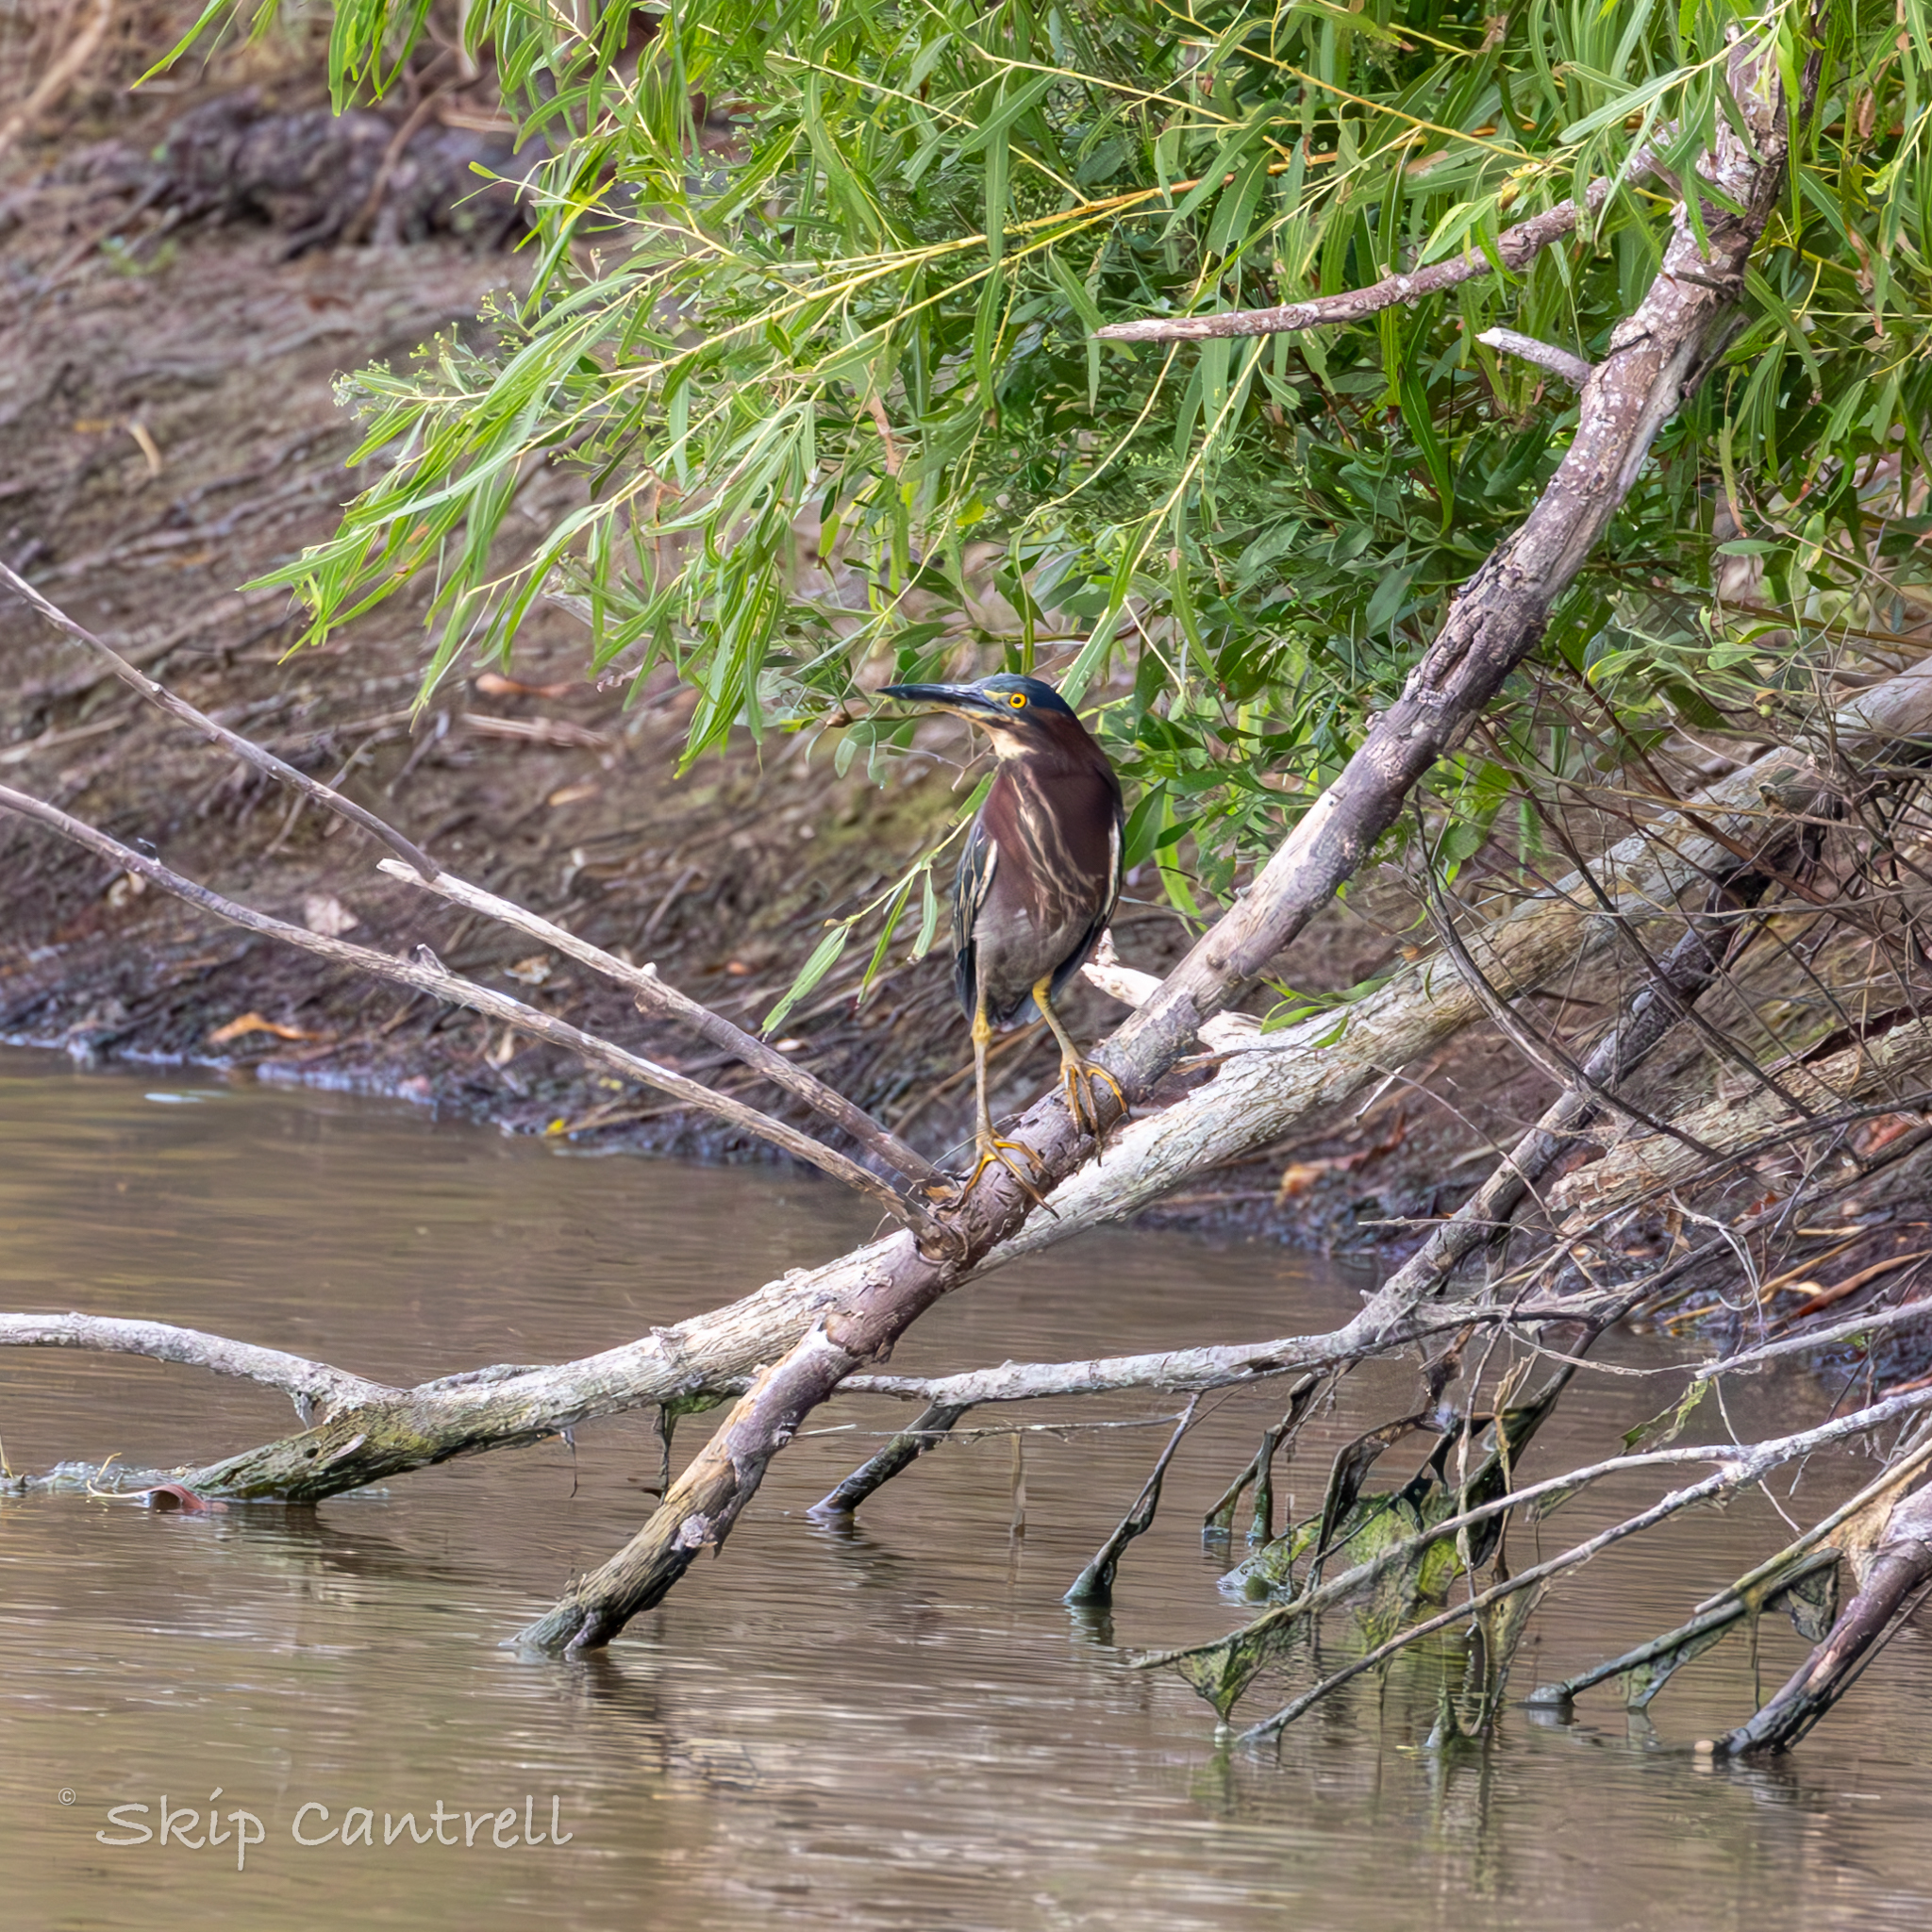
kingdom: Animalia
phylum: Chordata
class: Aves
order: Pelecaniformes
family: Ardeidae
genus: Butorides
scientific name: Butorides virescens
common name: Green heron
